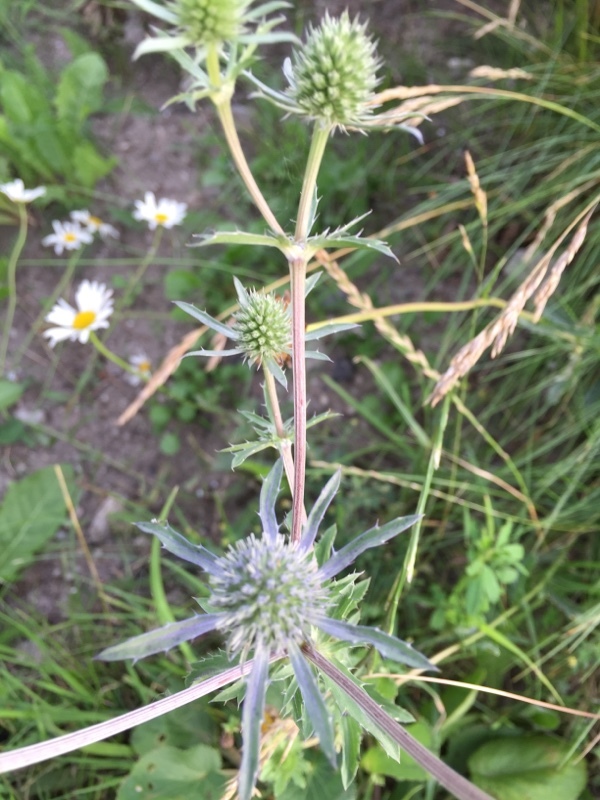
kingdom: Plantae
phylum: Tracheophyta
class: Magnoliopsida
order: Apiales
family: Apiaceae
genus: Eryngium
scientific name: Eryngium planum
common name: Blue eryngo
